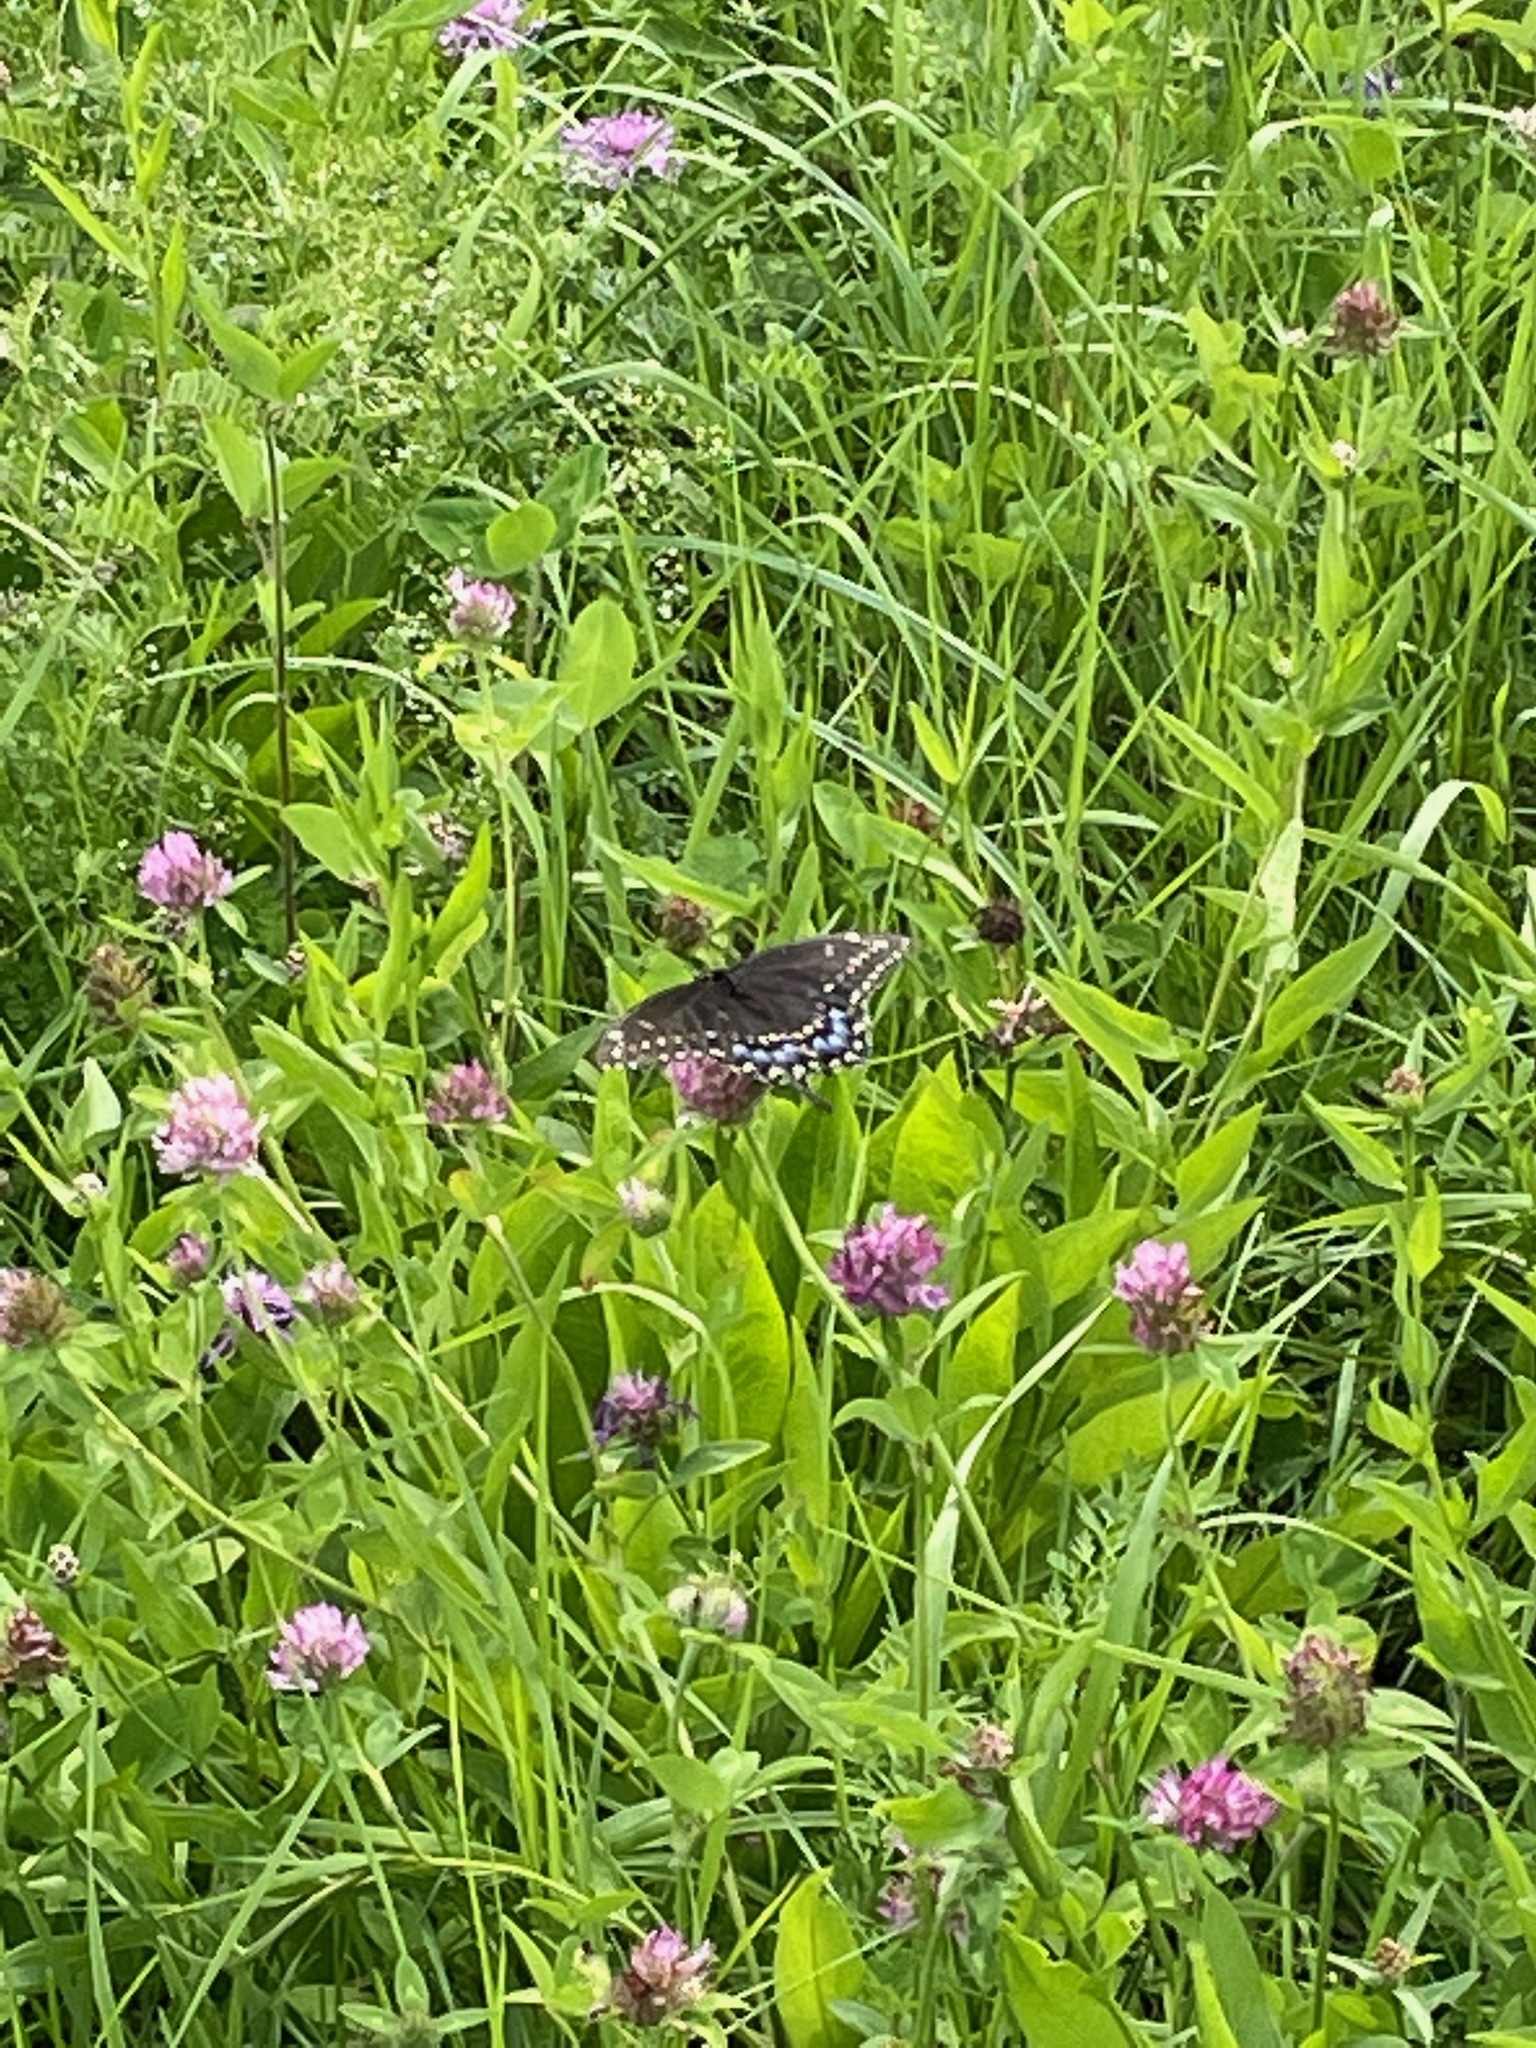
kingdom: Animalia
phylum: Arthropoda
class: Insecta
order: Lepidoptera
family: Papilionidae
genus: Papilio
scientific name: Papilio polyxenes
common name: Black swallowtail
